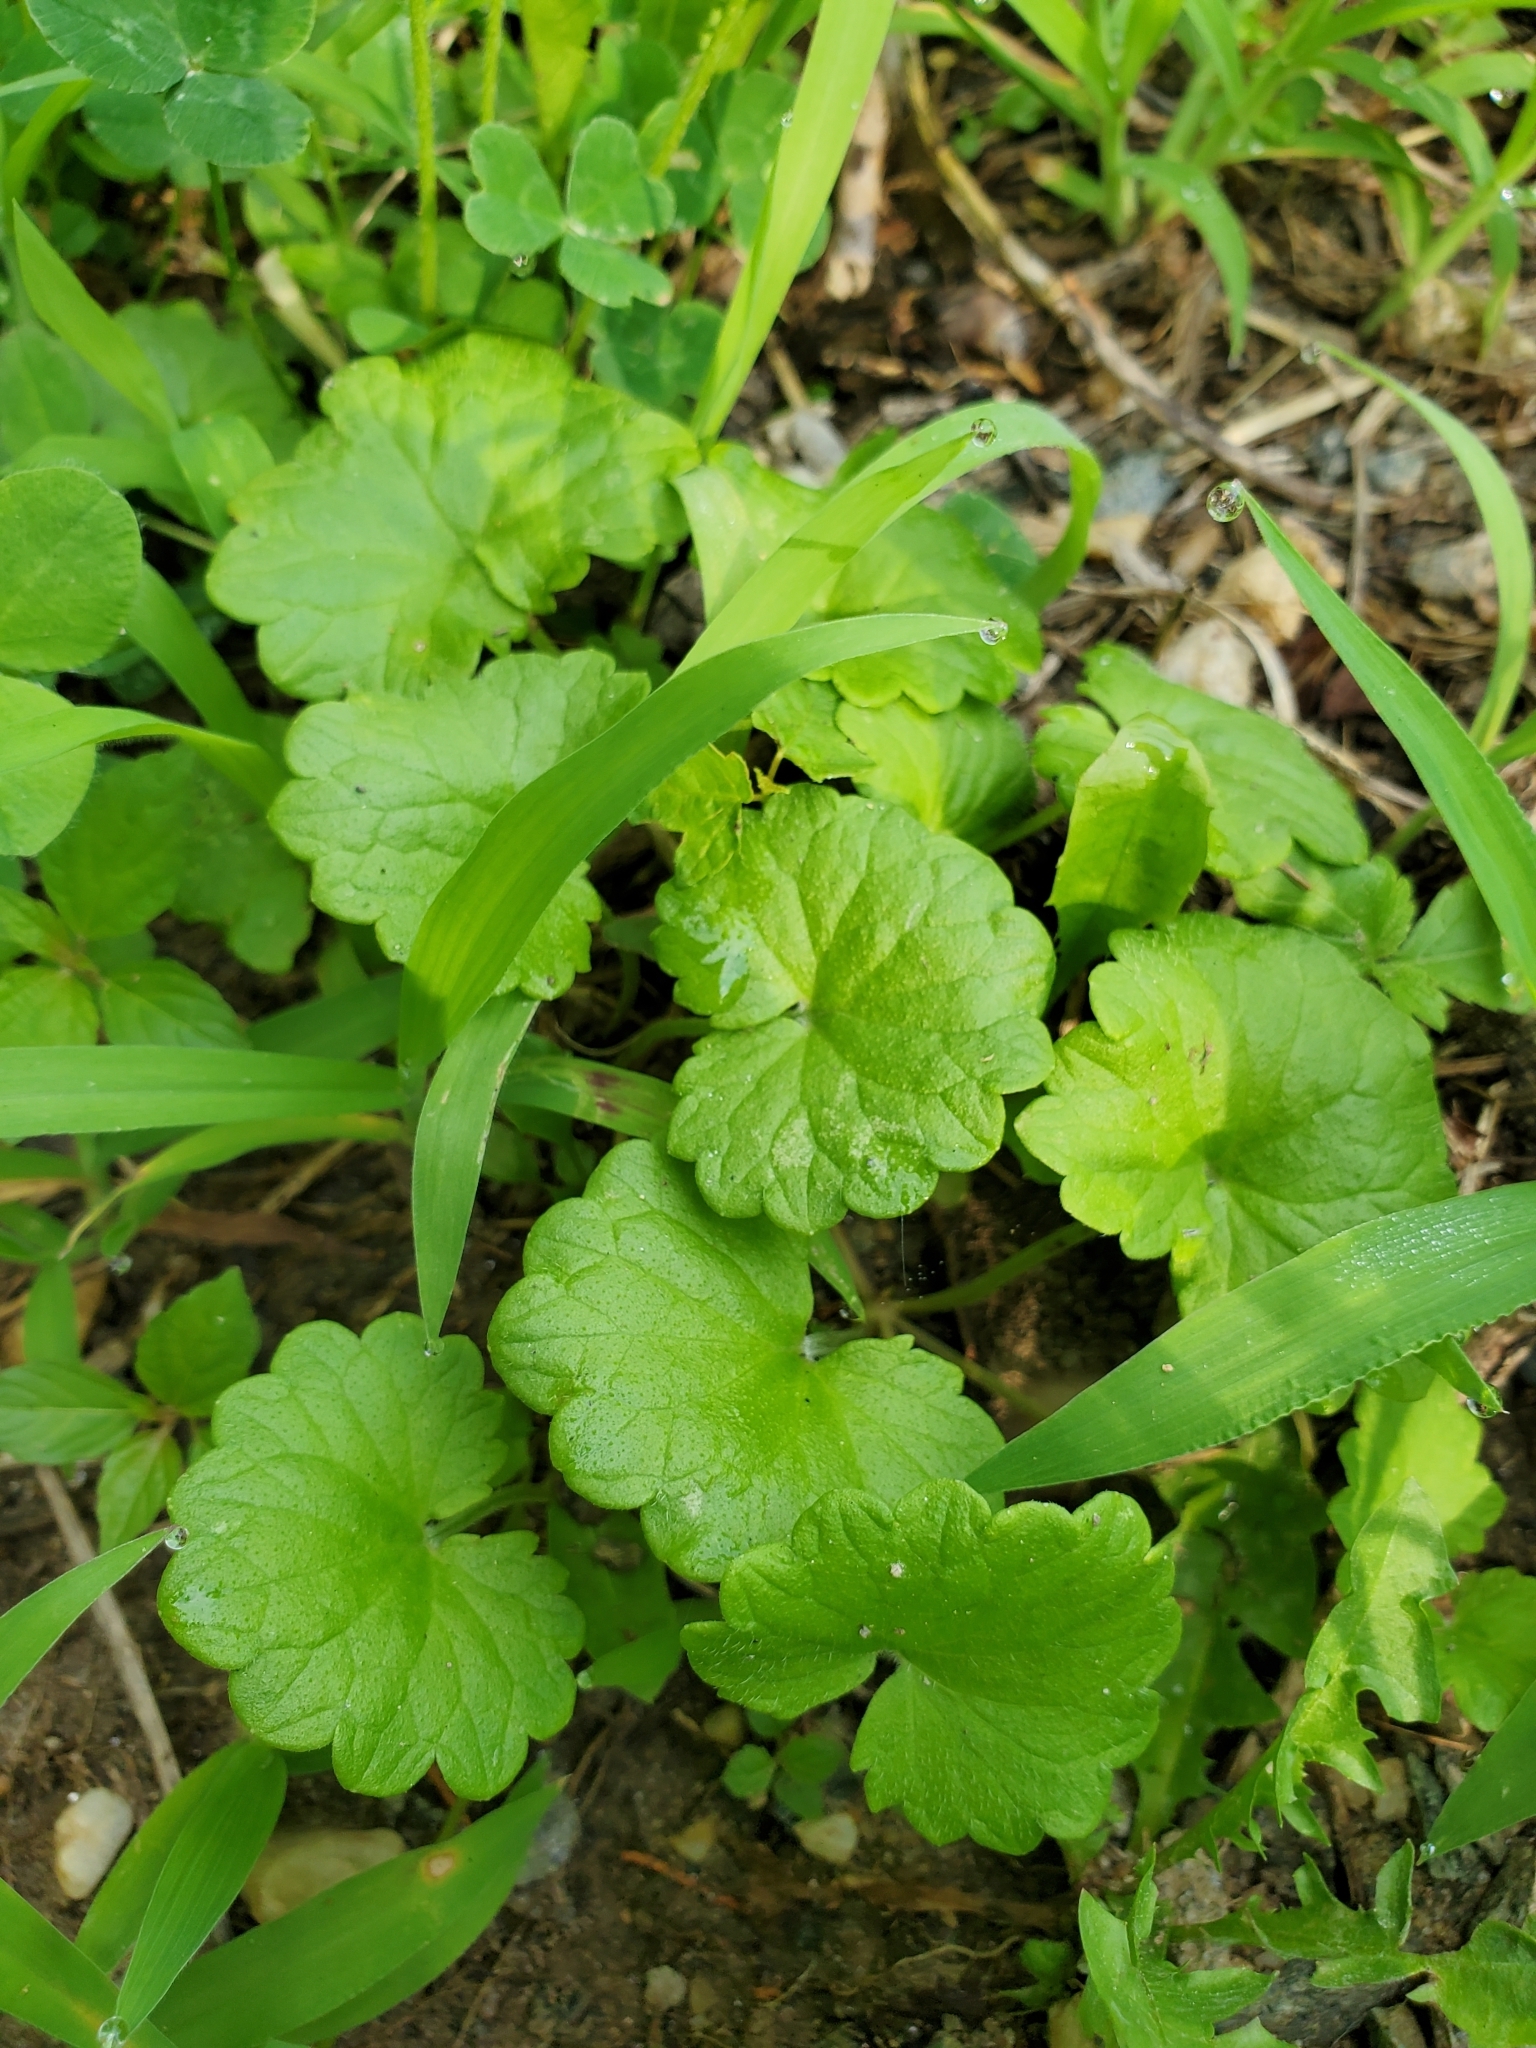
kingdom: Plantae
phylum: Tracheophyta
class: Magnoliopsida
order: Lamiales
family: Lamiaceae
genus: Glechoma
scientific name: Glechoma hederacea
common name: Ground ivy
